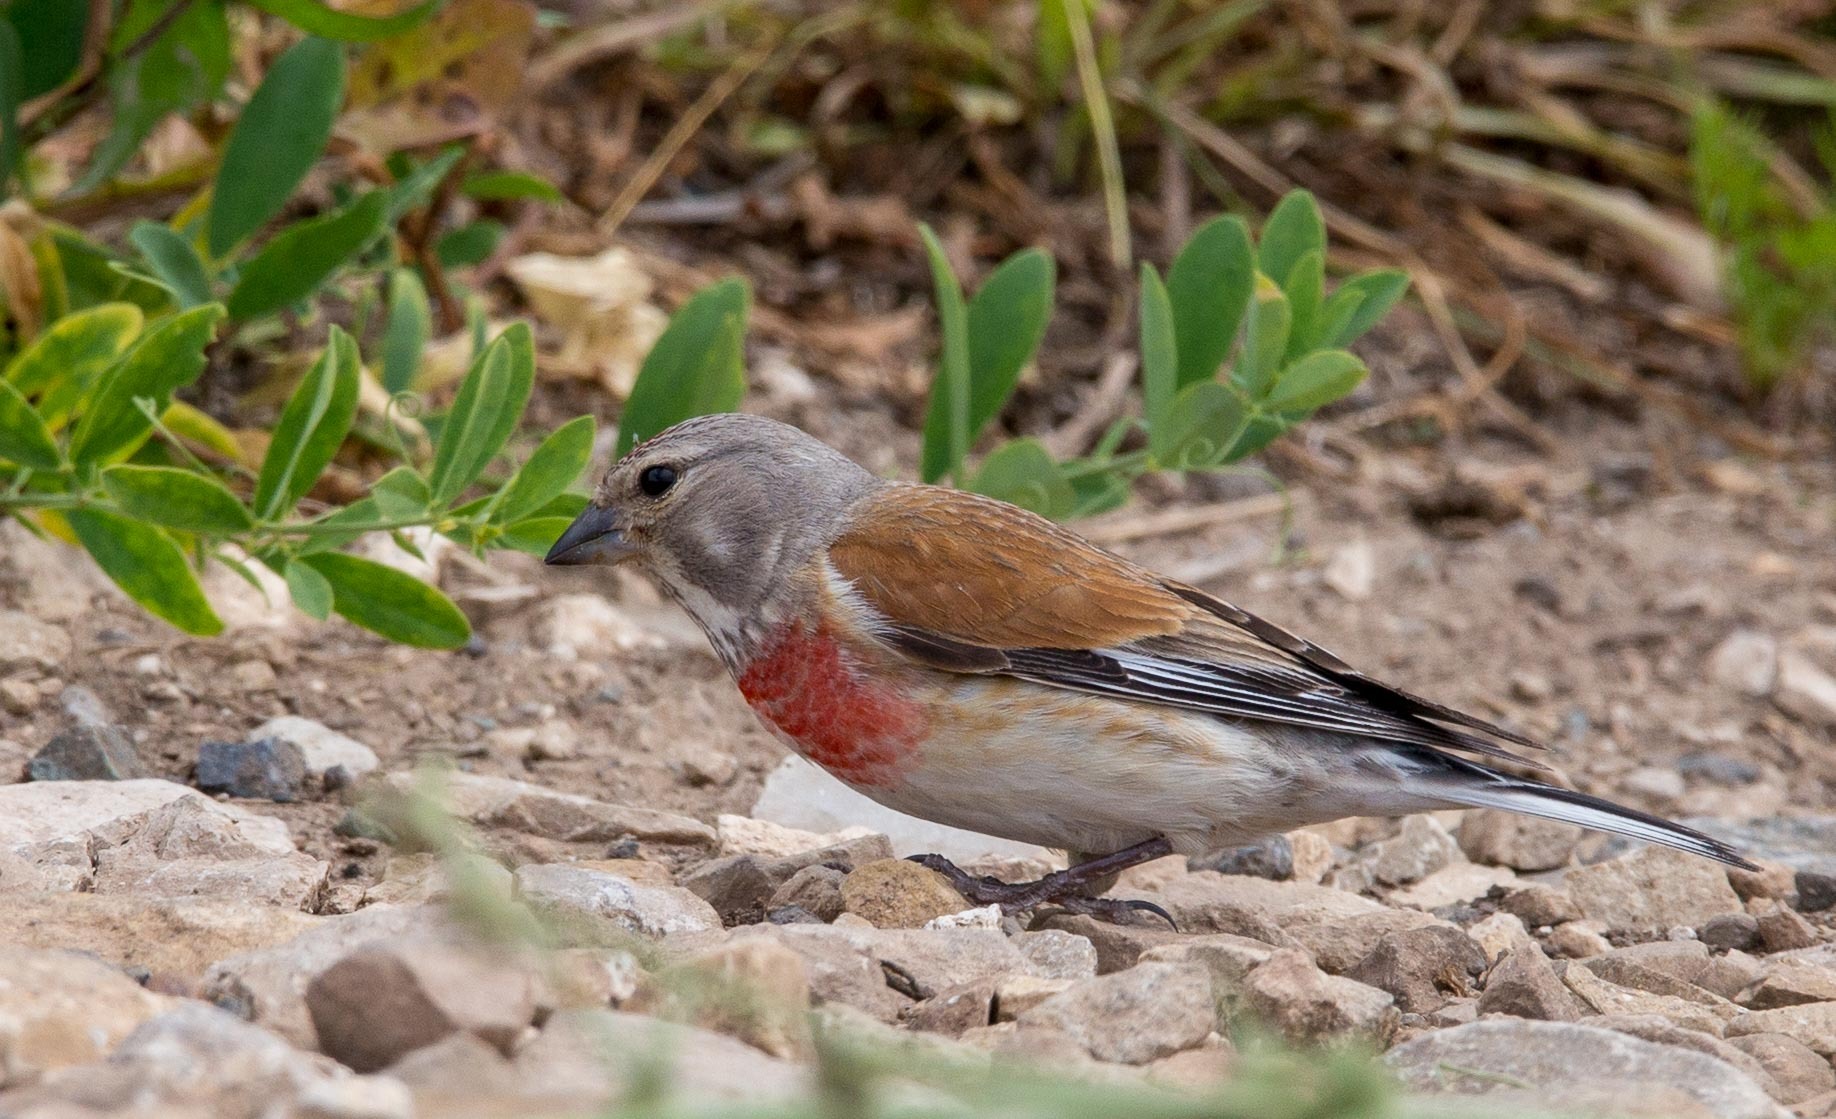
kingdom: Animalia
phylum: Chordata
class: Aves
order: Passeriformes
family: Fringillidae
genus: Linaria
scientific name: Linaria cannabina
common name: Common linnet
